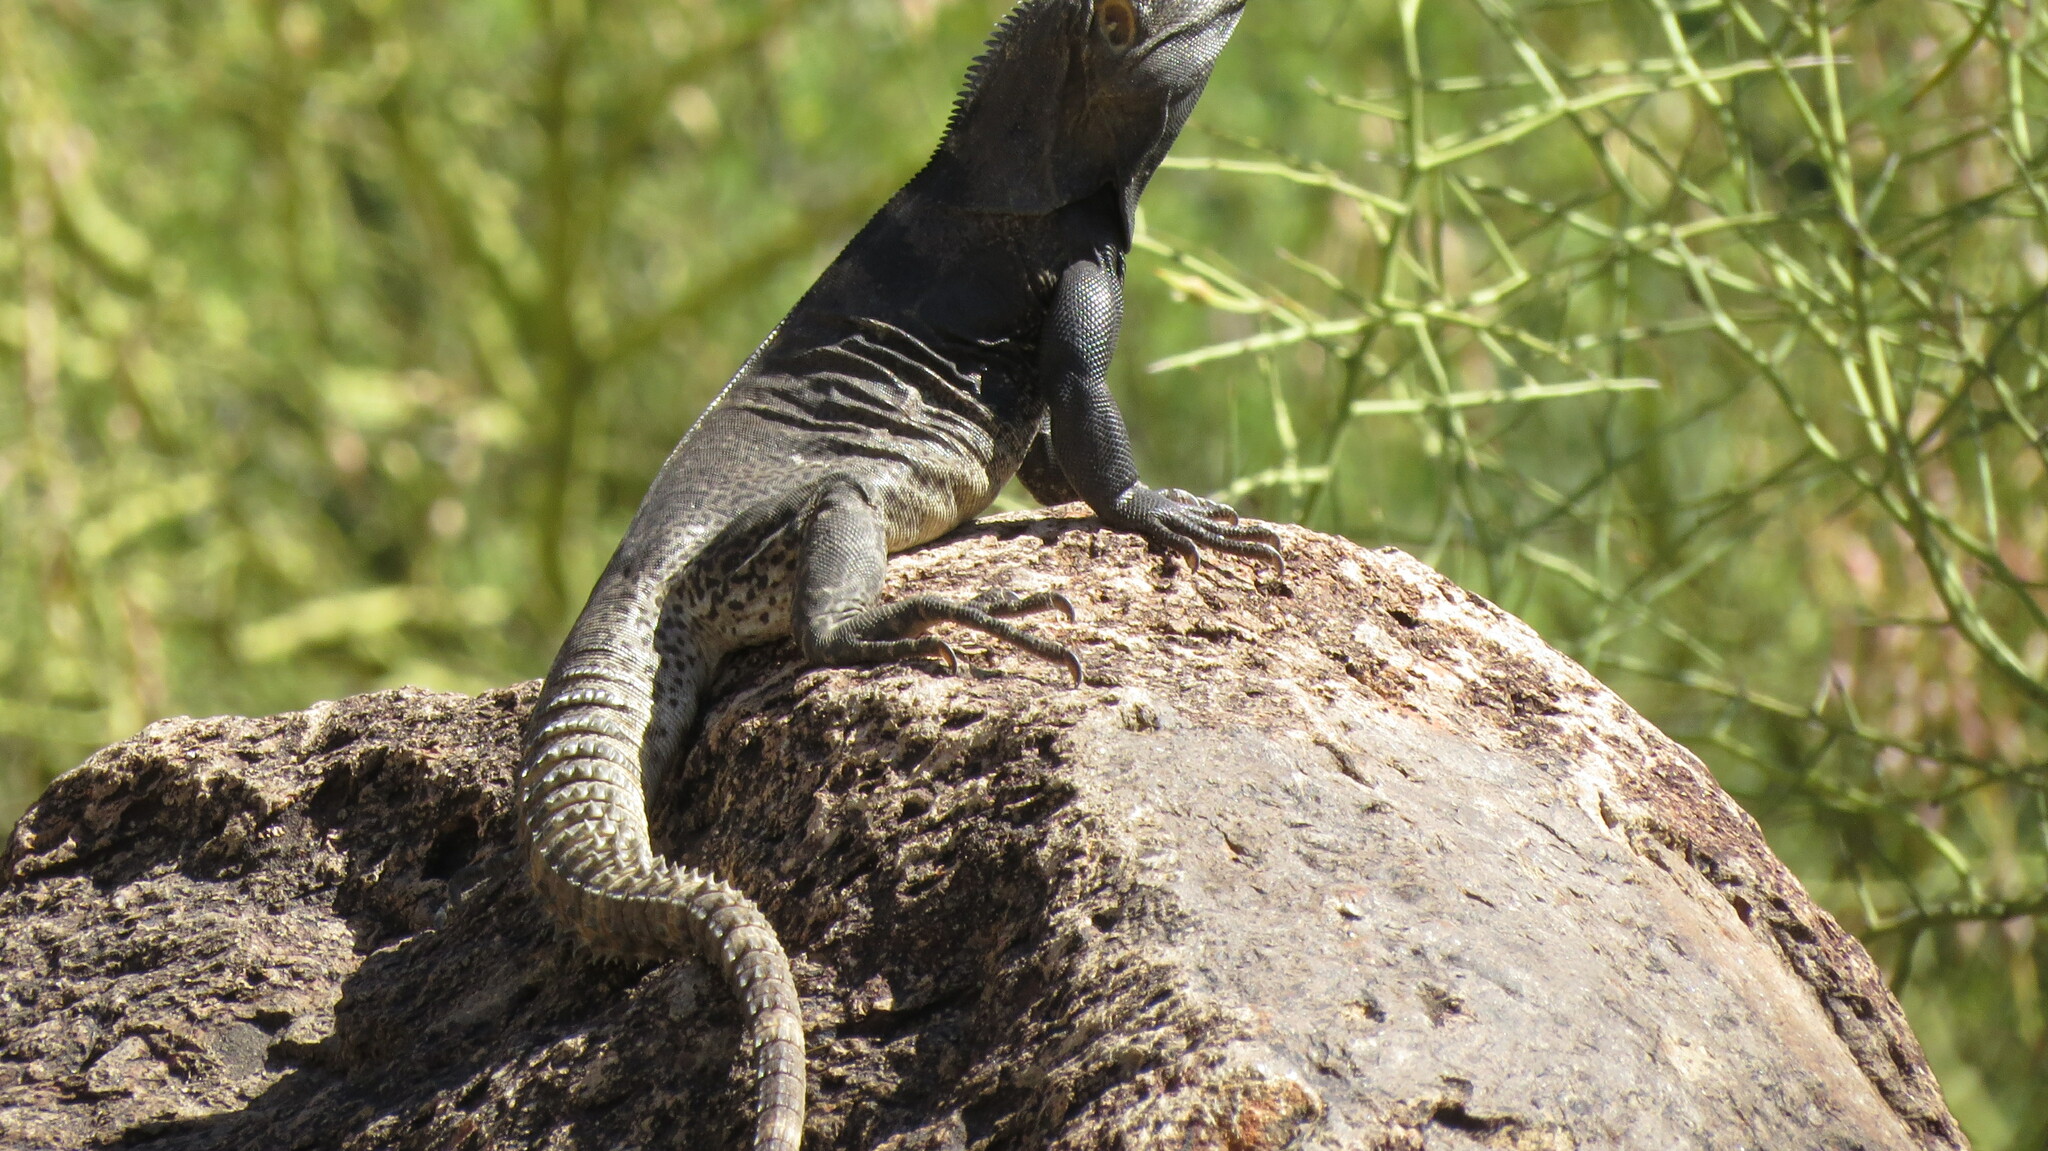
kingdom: Animalia
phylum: Chordata
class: Squamata
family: Iguanidae
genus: Ctenosaura
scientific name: Ctenosaura
